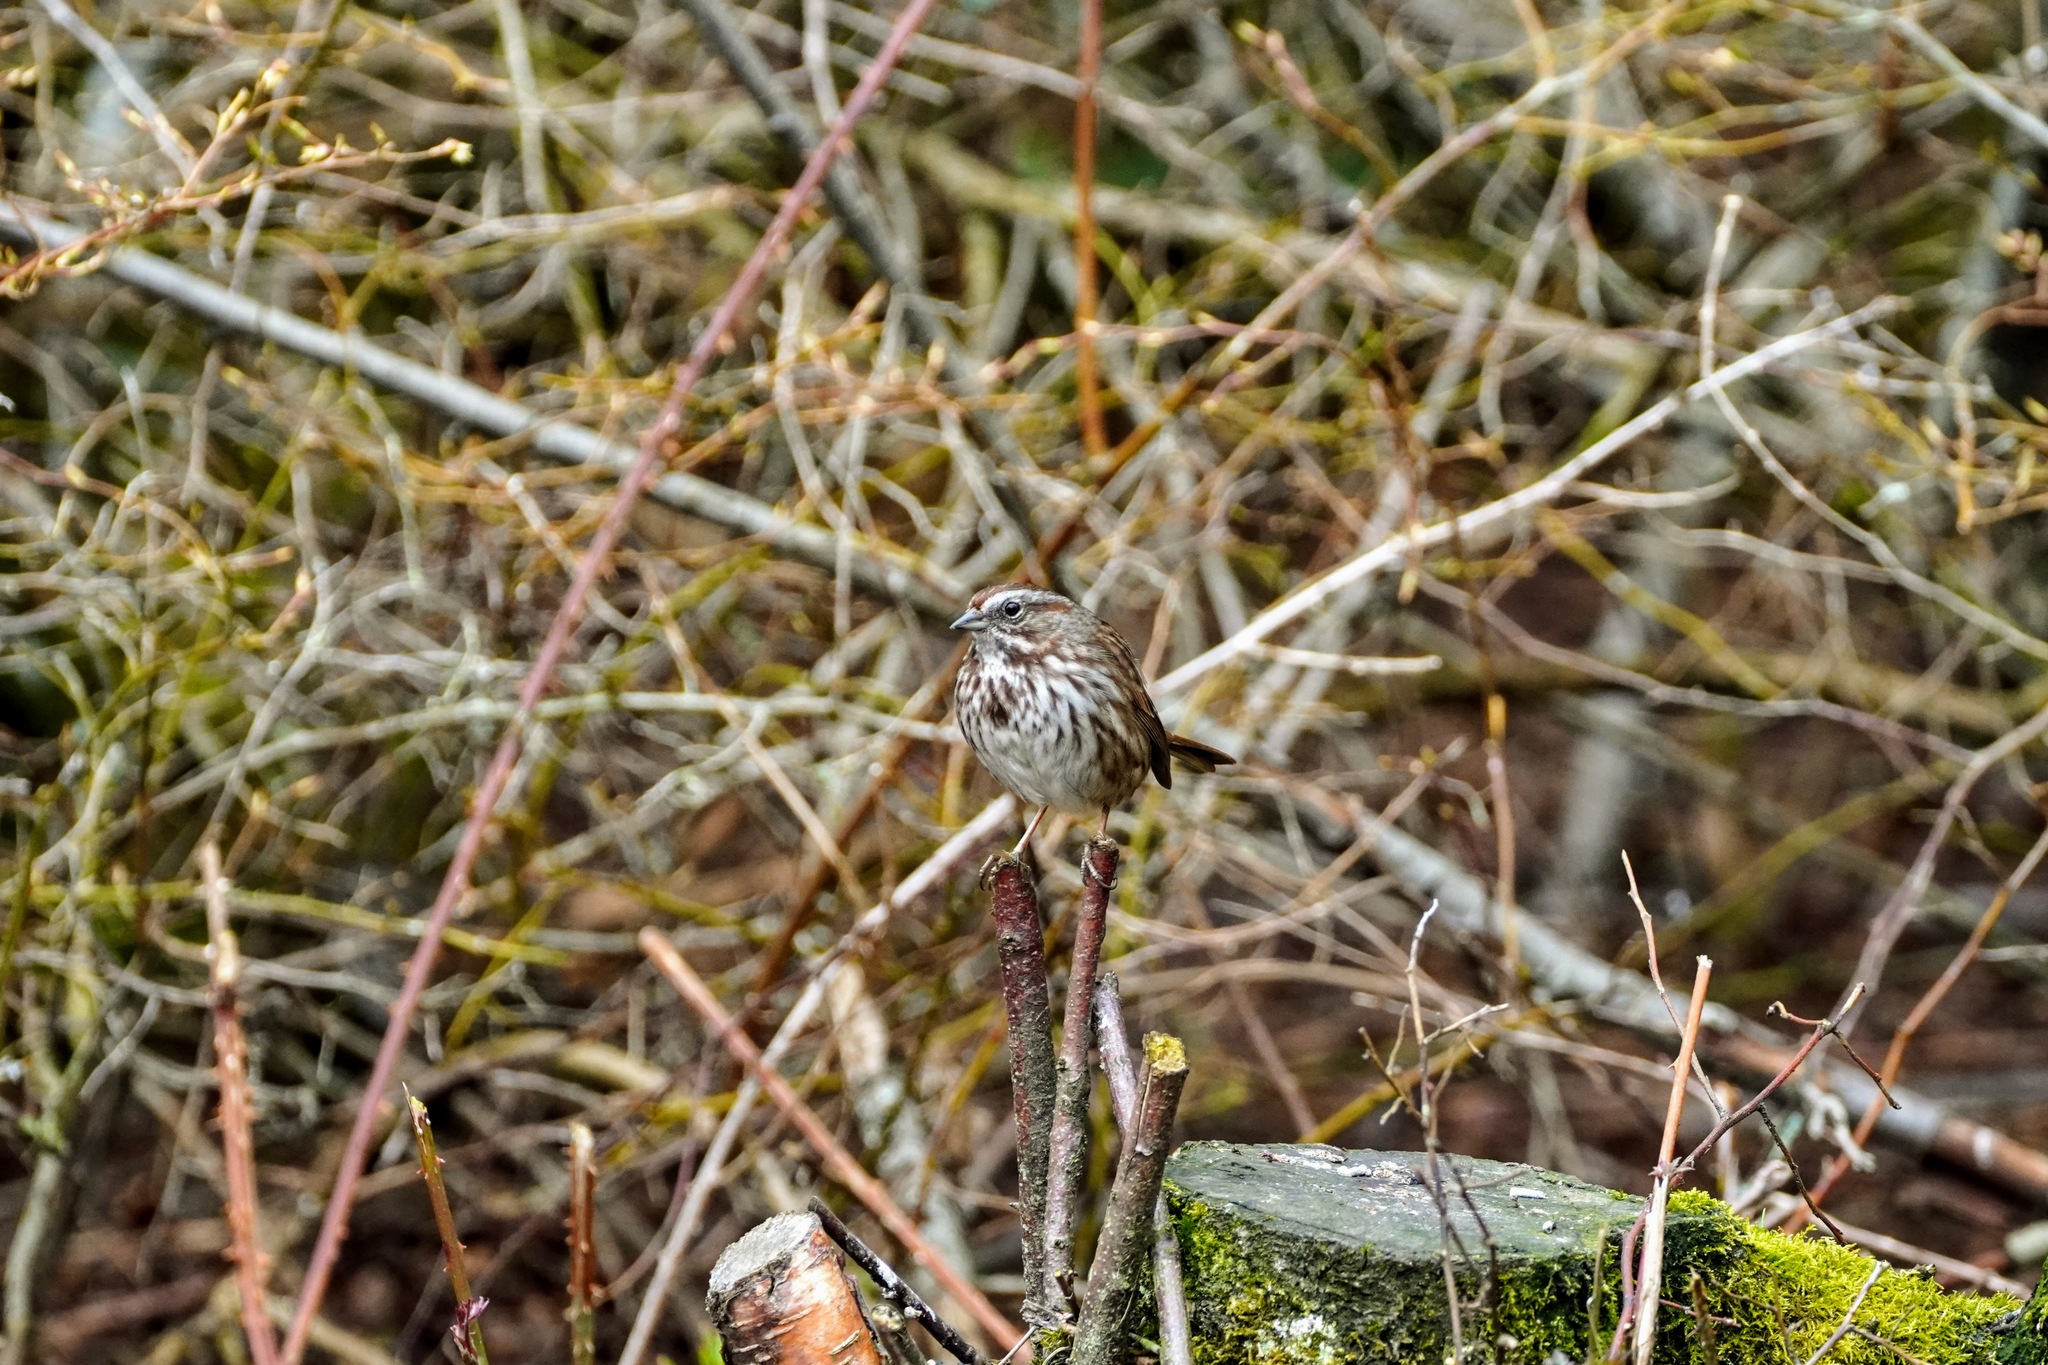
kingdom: Animalia
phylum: Chordata
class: Aves
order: Passeriformes
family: Passerellidae
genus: Melospiza
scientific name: Melospiza melodia
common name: Song sparrow
